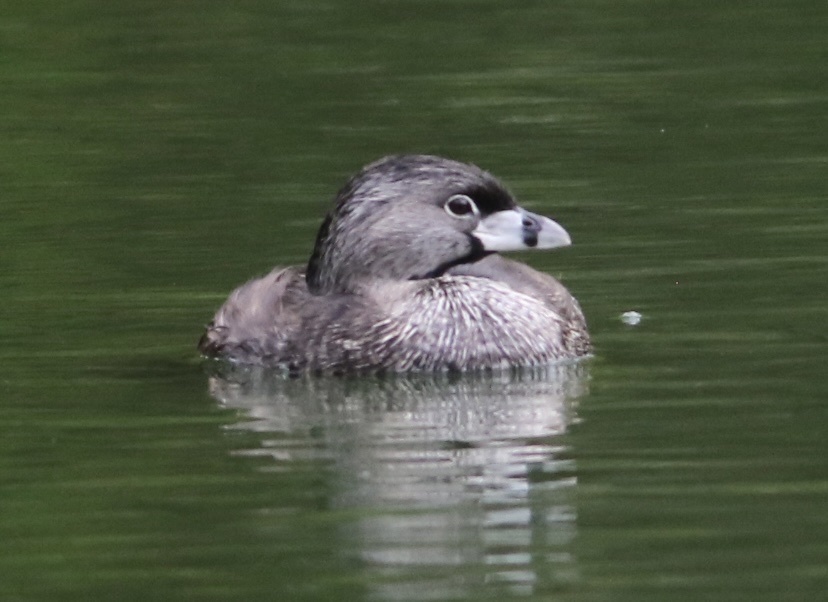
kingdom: Animalia
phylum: Chordata
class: Aves
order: Podicipediformes
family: Podicipedidae
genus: Podilymbus
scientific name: Podilymbus podiceps
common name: Pied-billed grebe
